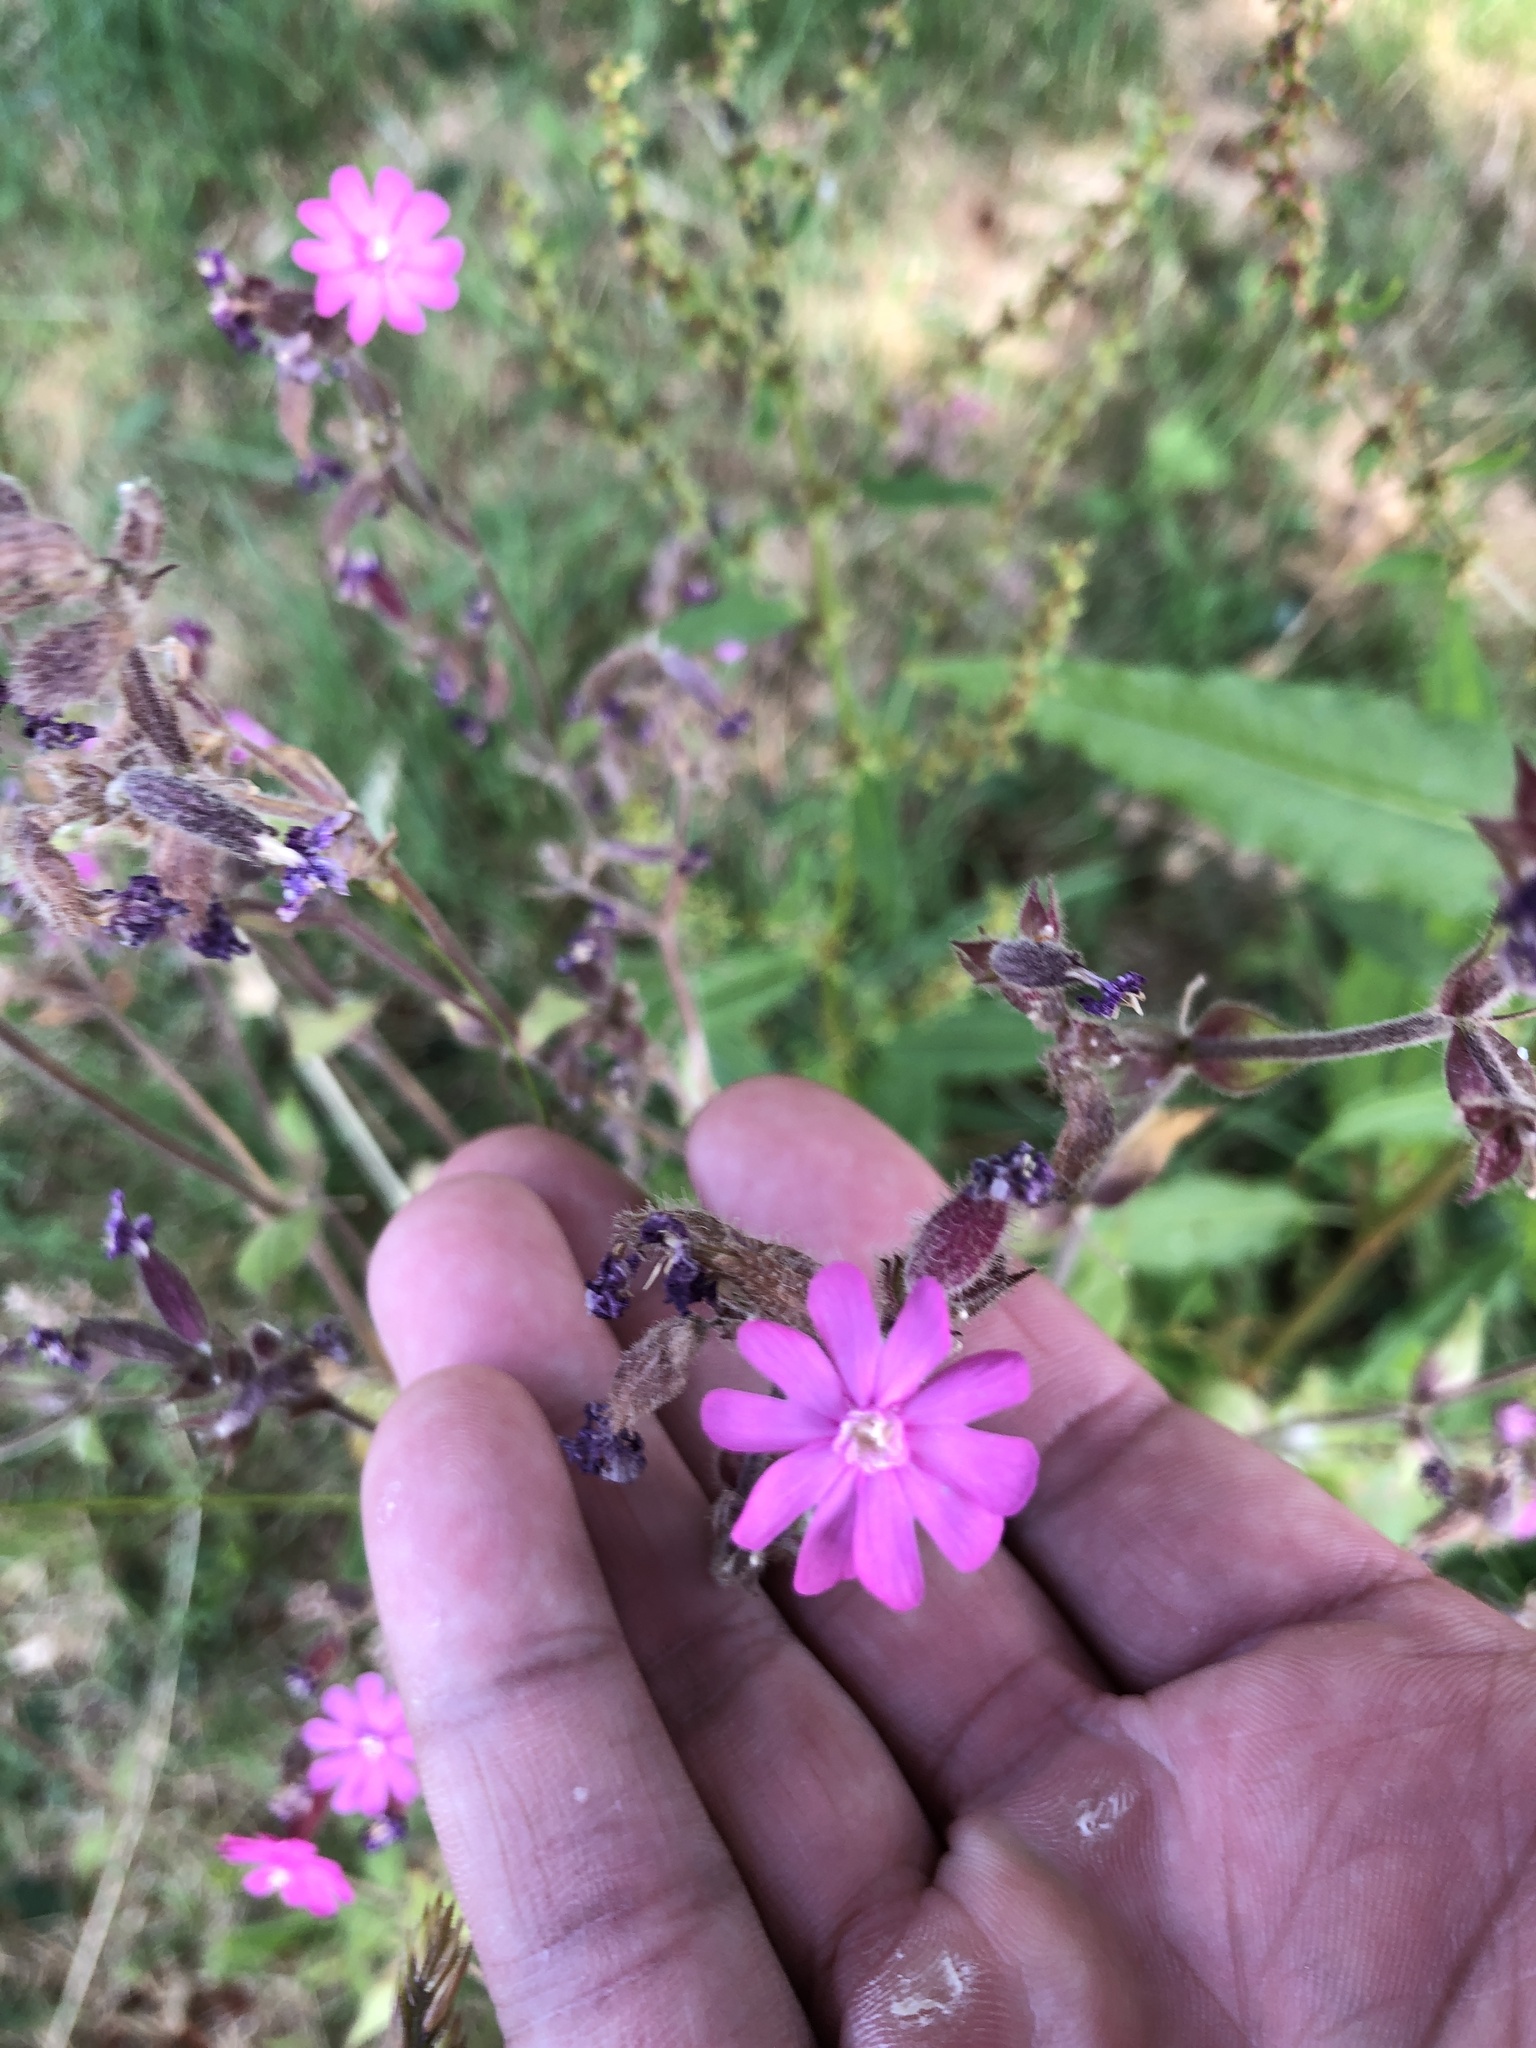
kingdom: Plantae
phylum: Tracheophyta
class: Magnoliopsida
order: Caryophyllales
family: Caryophyllaceae
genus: Silene
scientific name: Silene dioica
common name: Red campion
